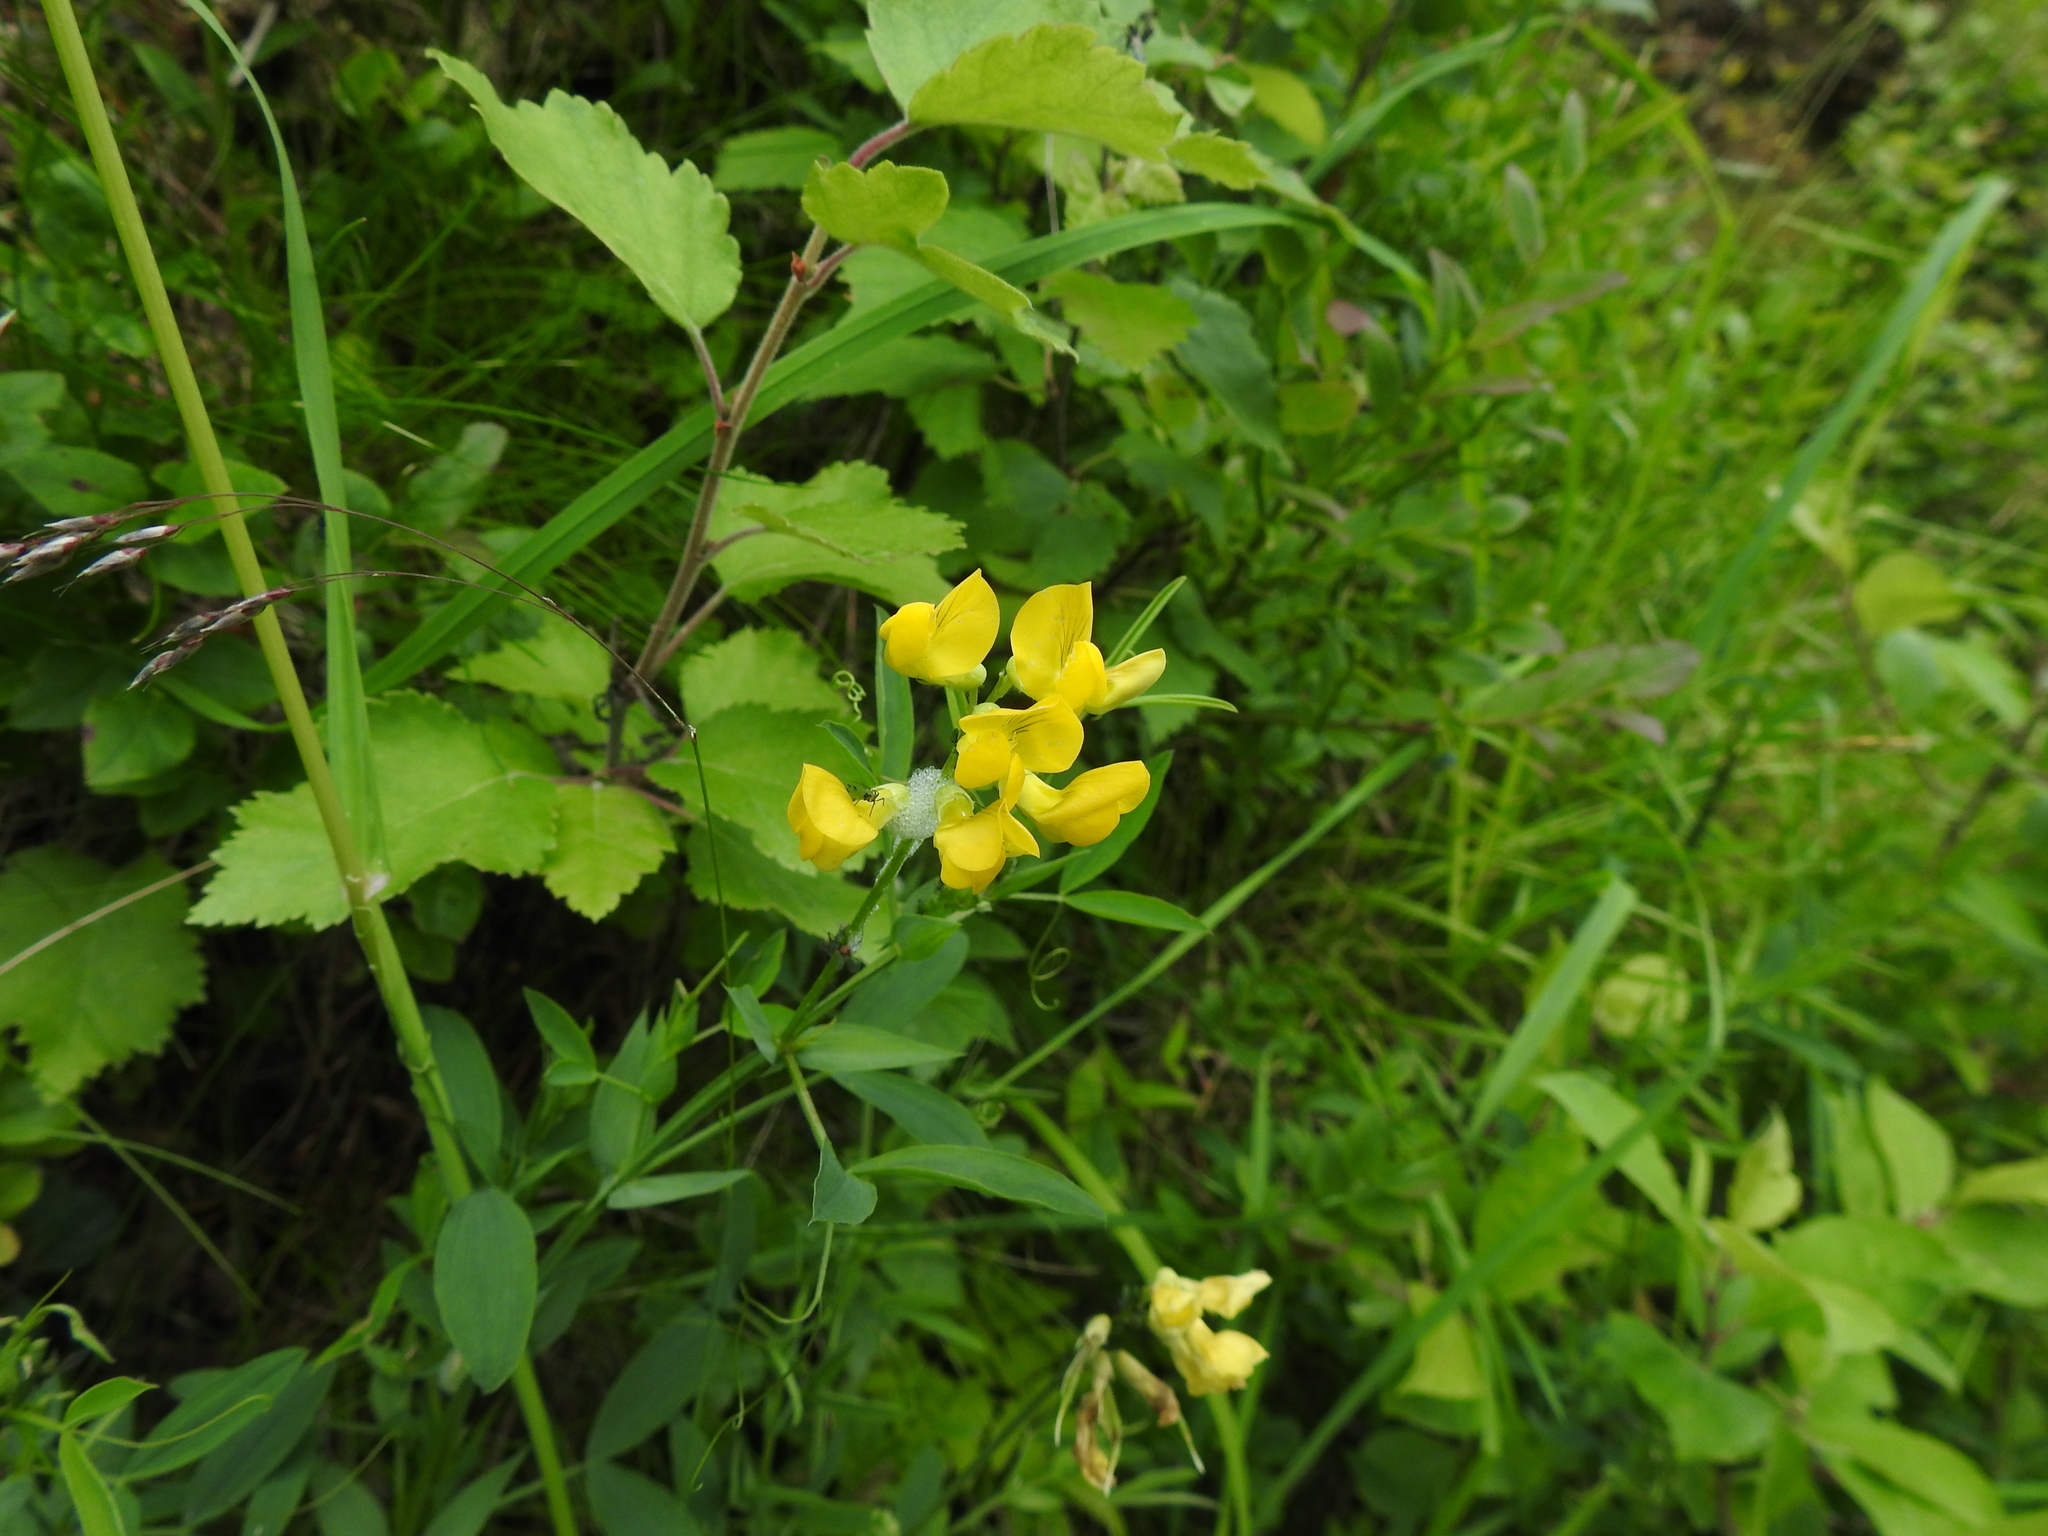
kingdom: Plantae
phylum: Tracheophyta
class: Magnoliopsida
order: Fabales
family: Fabaceae
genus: Lathyrus
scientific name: Lathyrus pratensis
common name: Meadow vetchling
